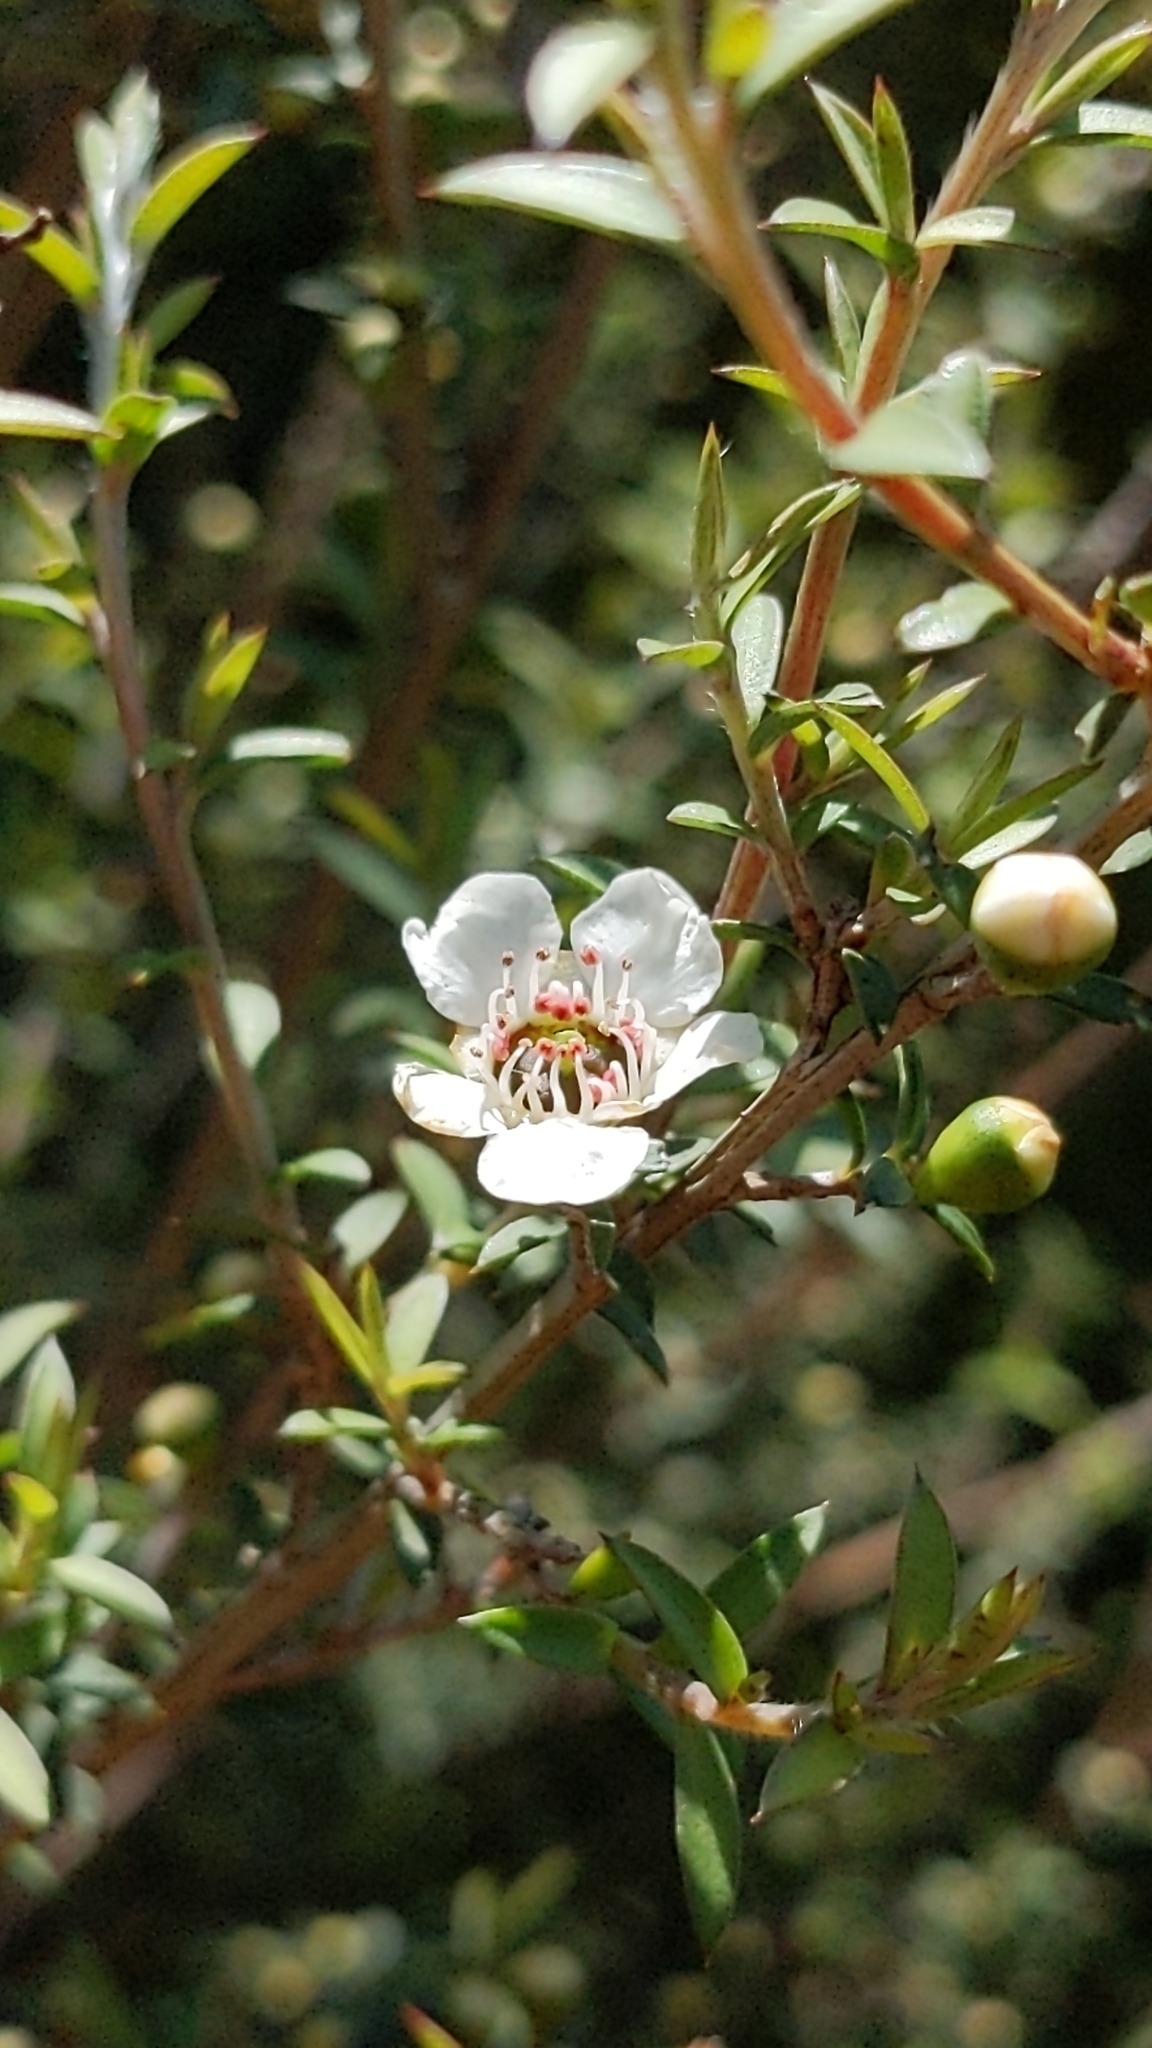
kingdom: Plantae
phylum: Tracheophyta
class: Magnoliopsida
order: Myrtales
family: Myrtaceae
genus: Leptospermum
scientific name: Leptospermum scoparium
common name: Broom tea-tree
